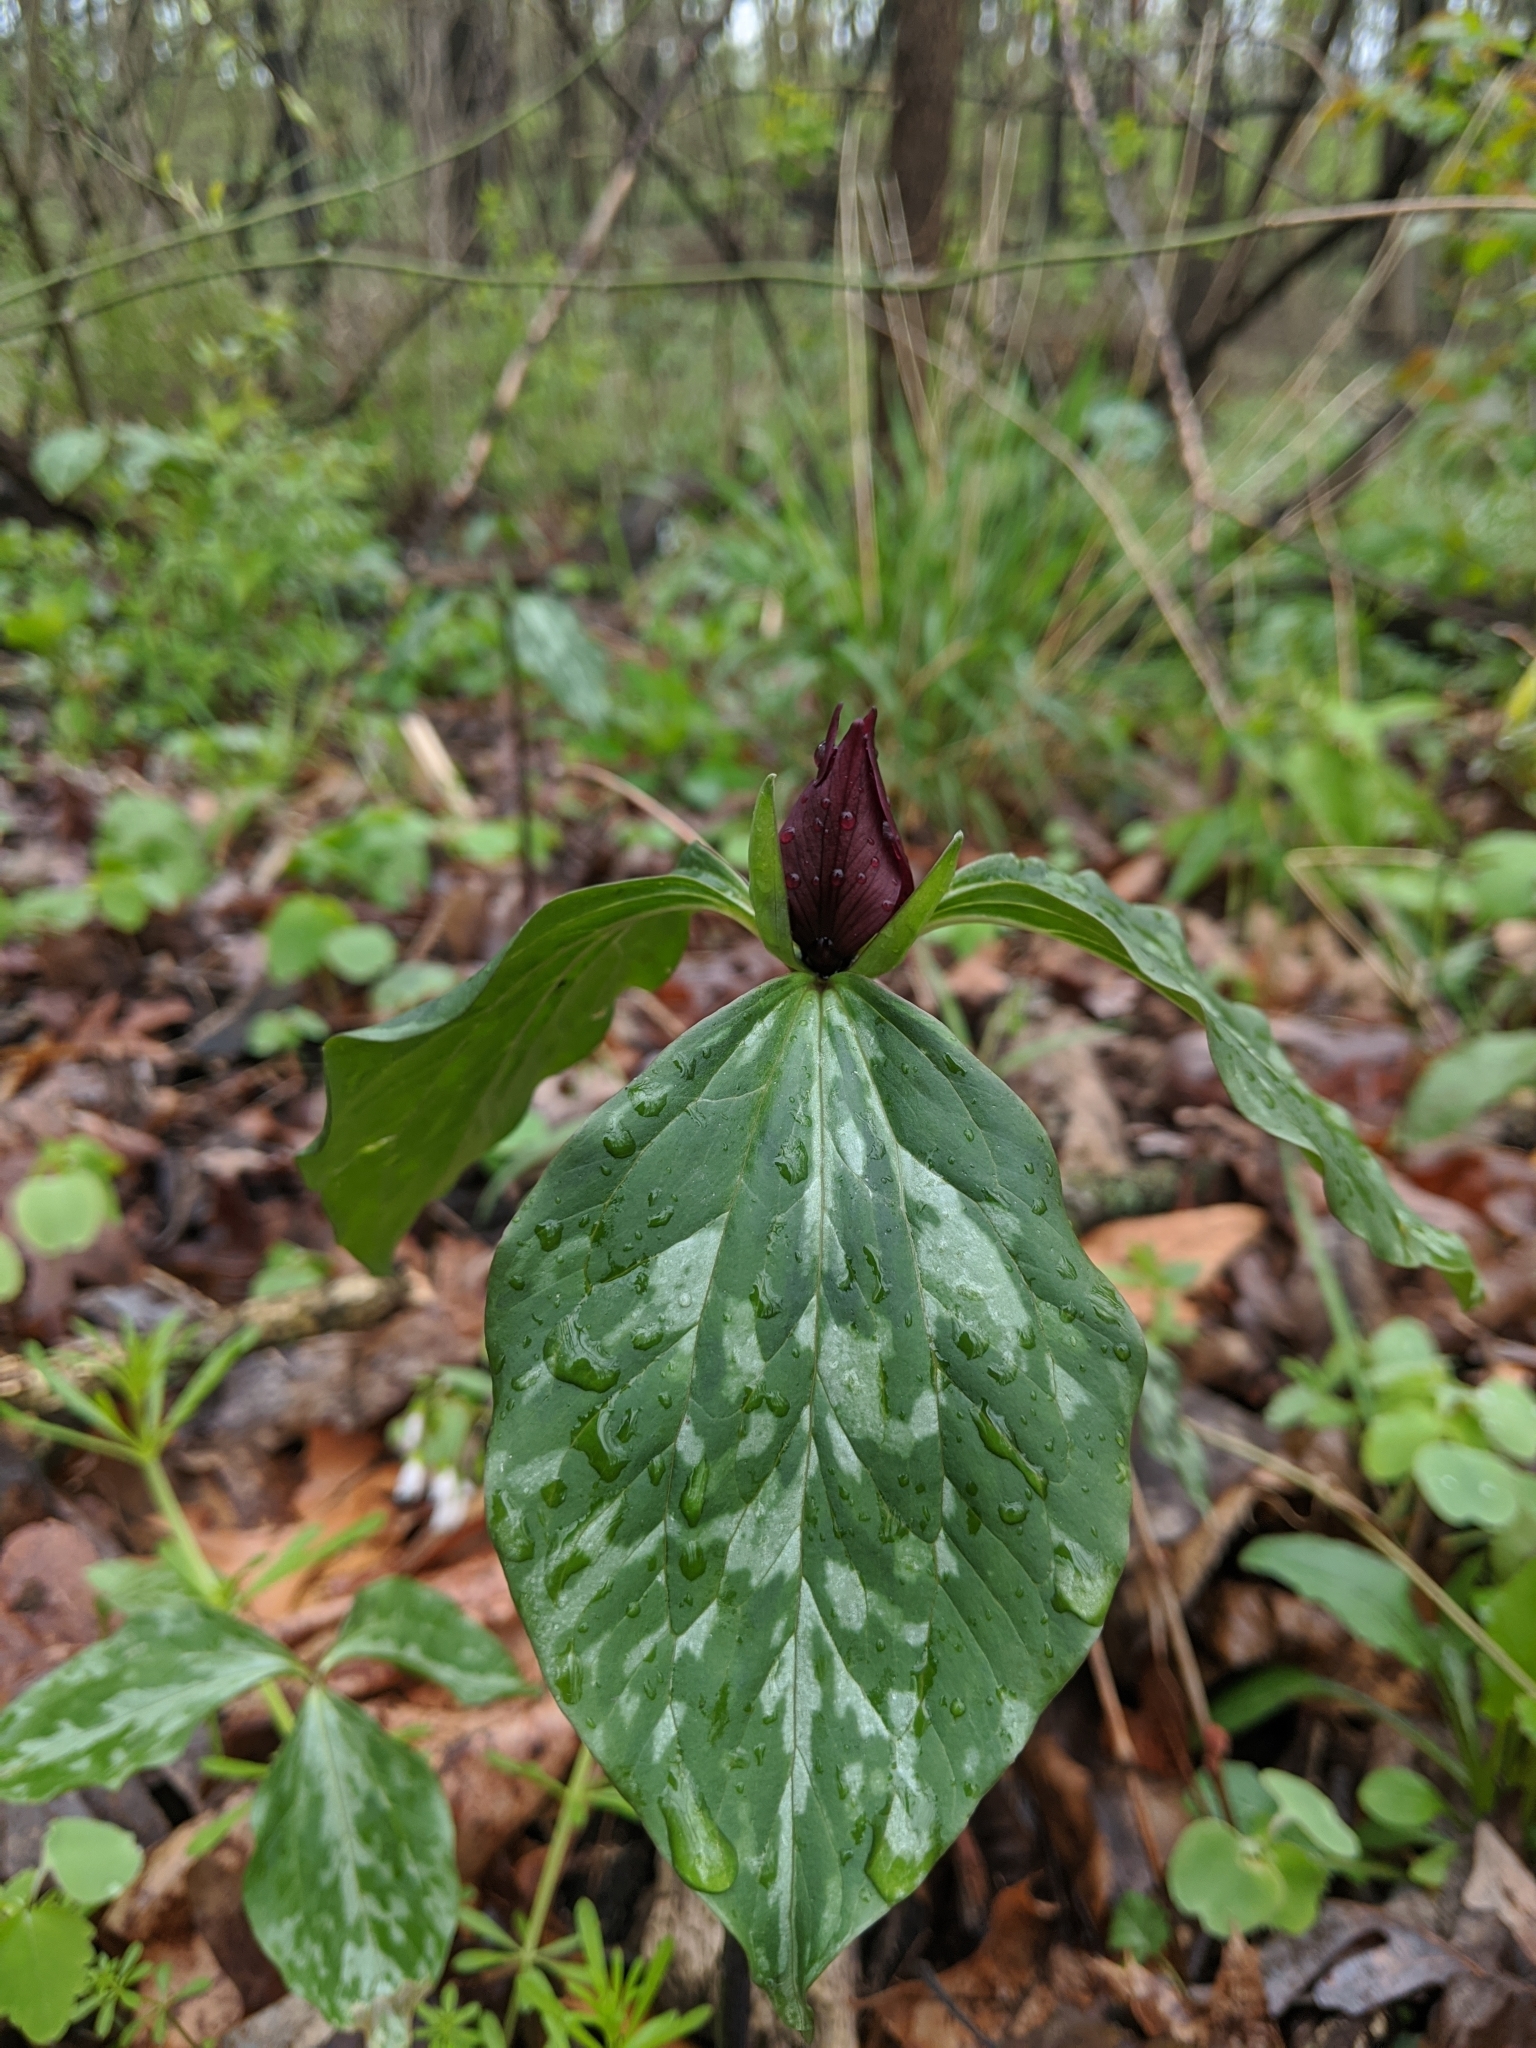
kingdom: Plantae
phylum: Tracheophyta
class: Liliopsida
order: Liliales
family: Melanthiaceae
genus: Trillium
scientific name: Trillium recurvatum
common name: Bloody butcher
